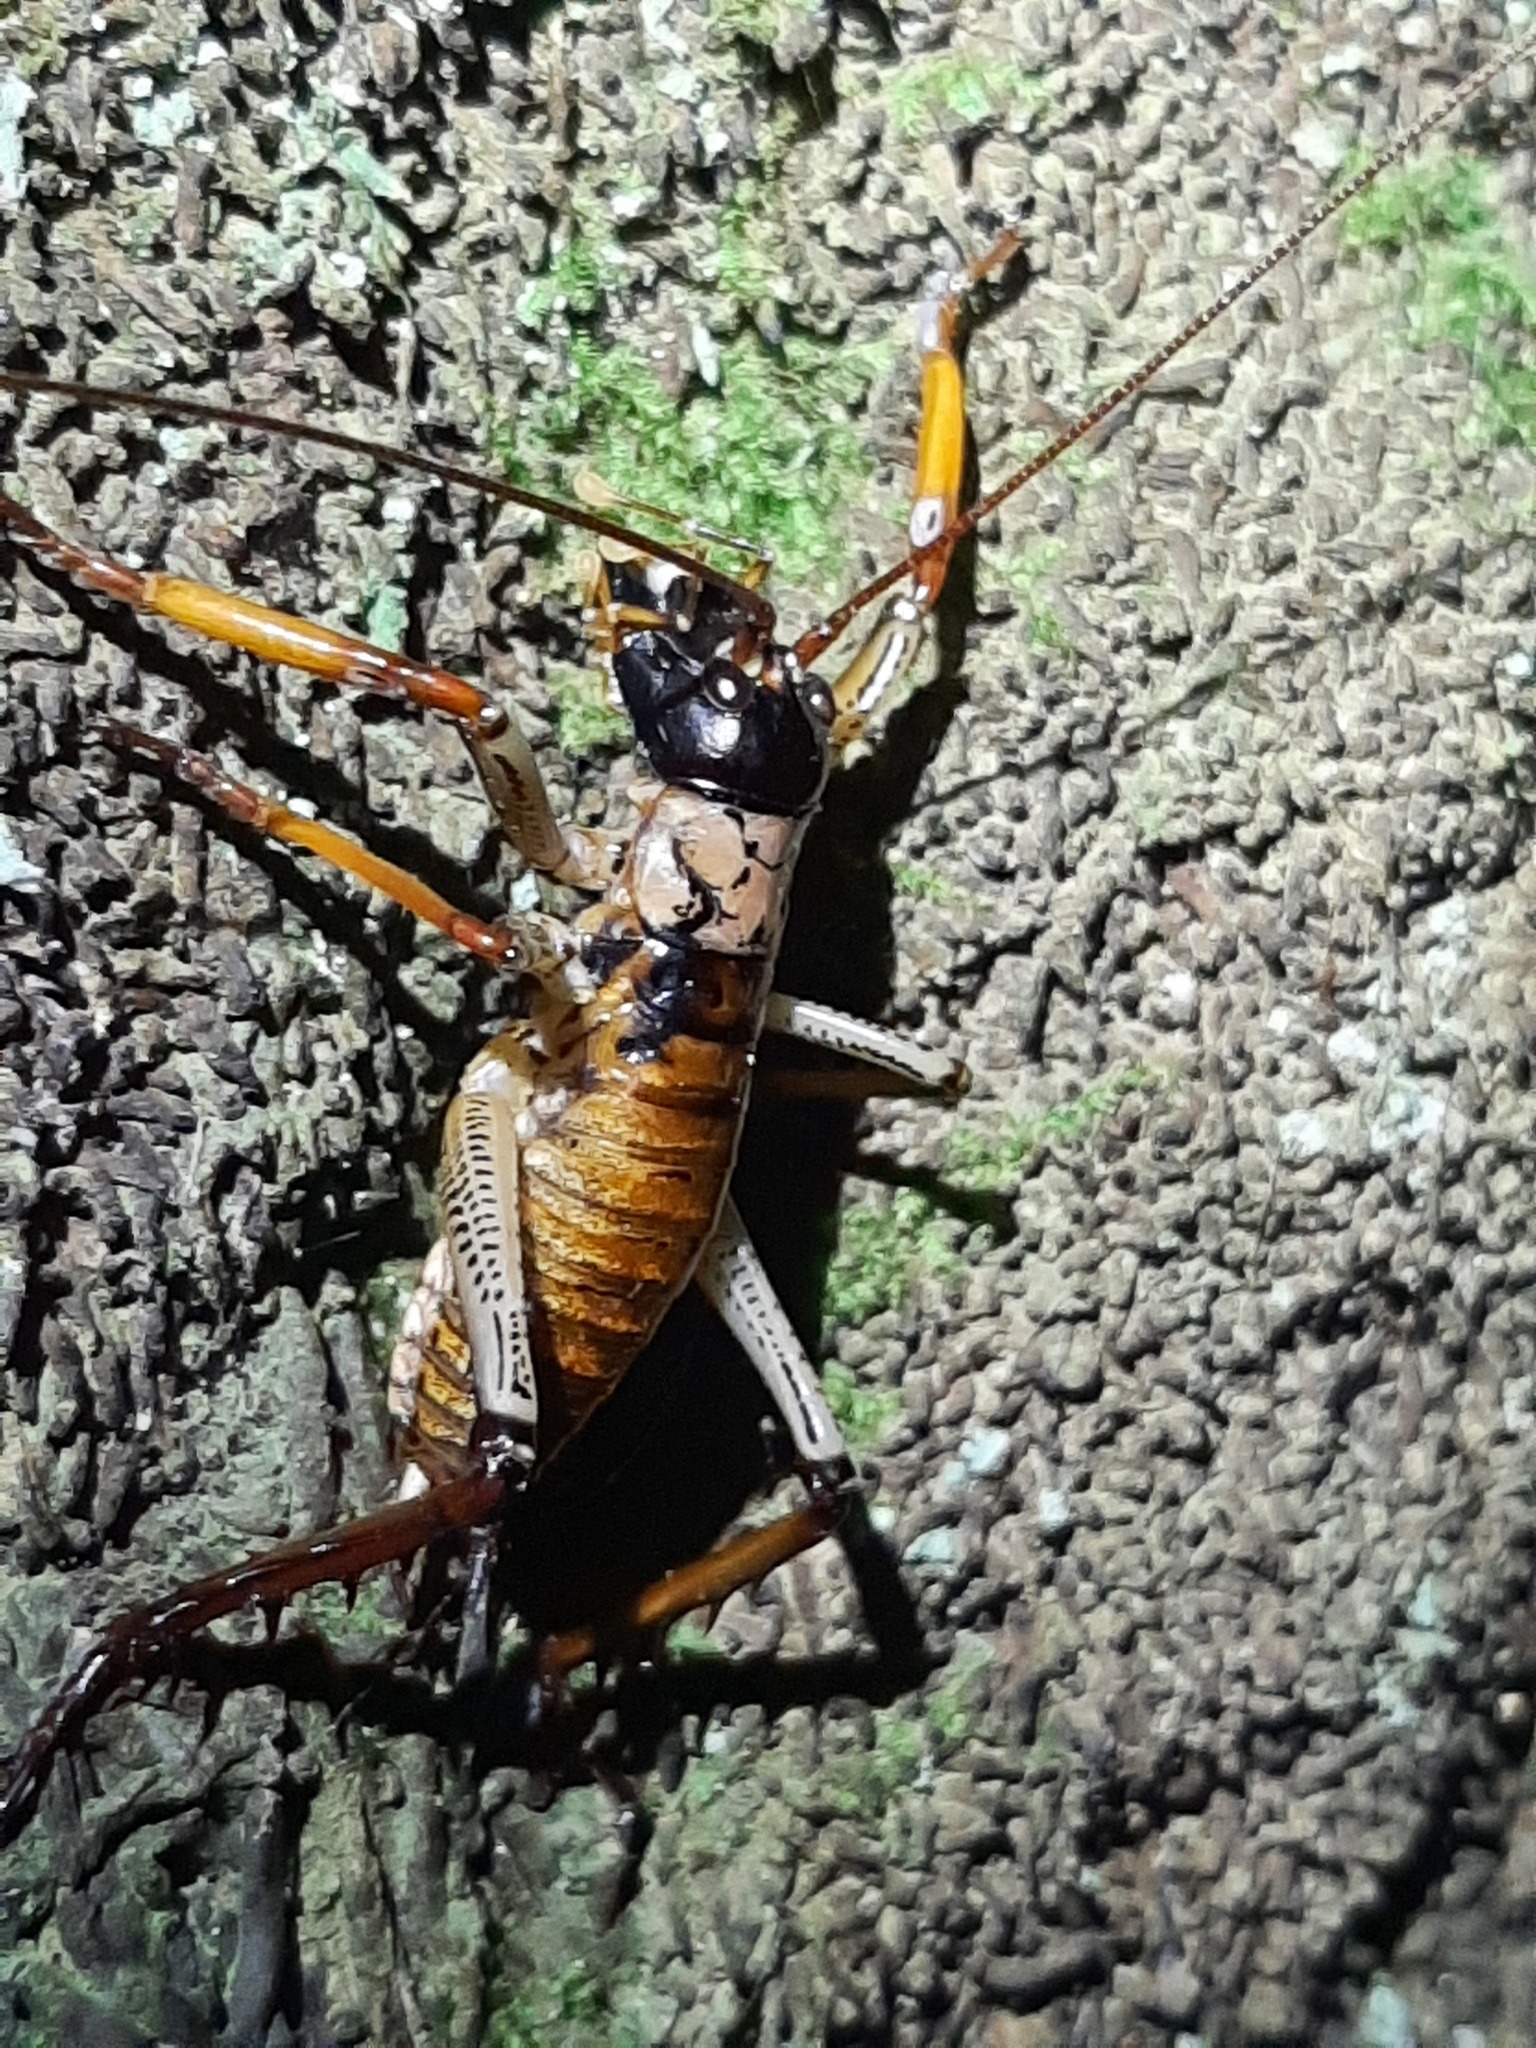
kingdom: Animalia
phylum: Arthropoda
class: Insecta
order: Orthoptera
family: Anostostomatidae
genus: Hemideina
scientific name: Hemideina thoracica
